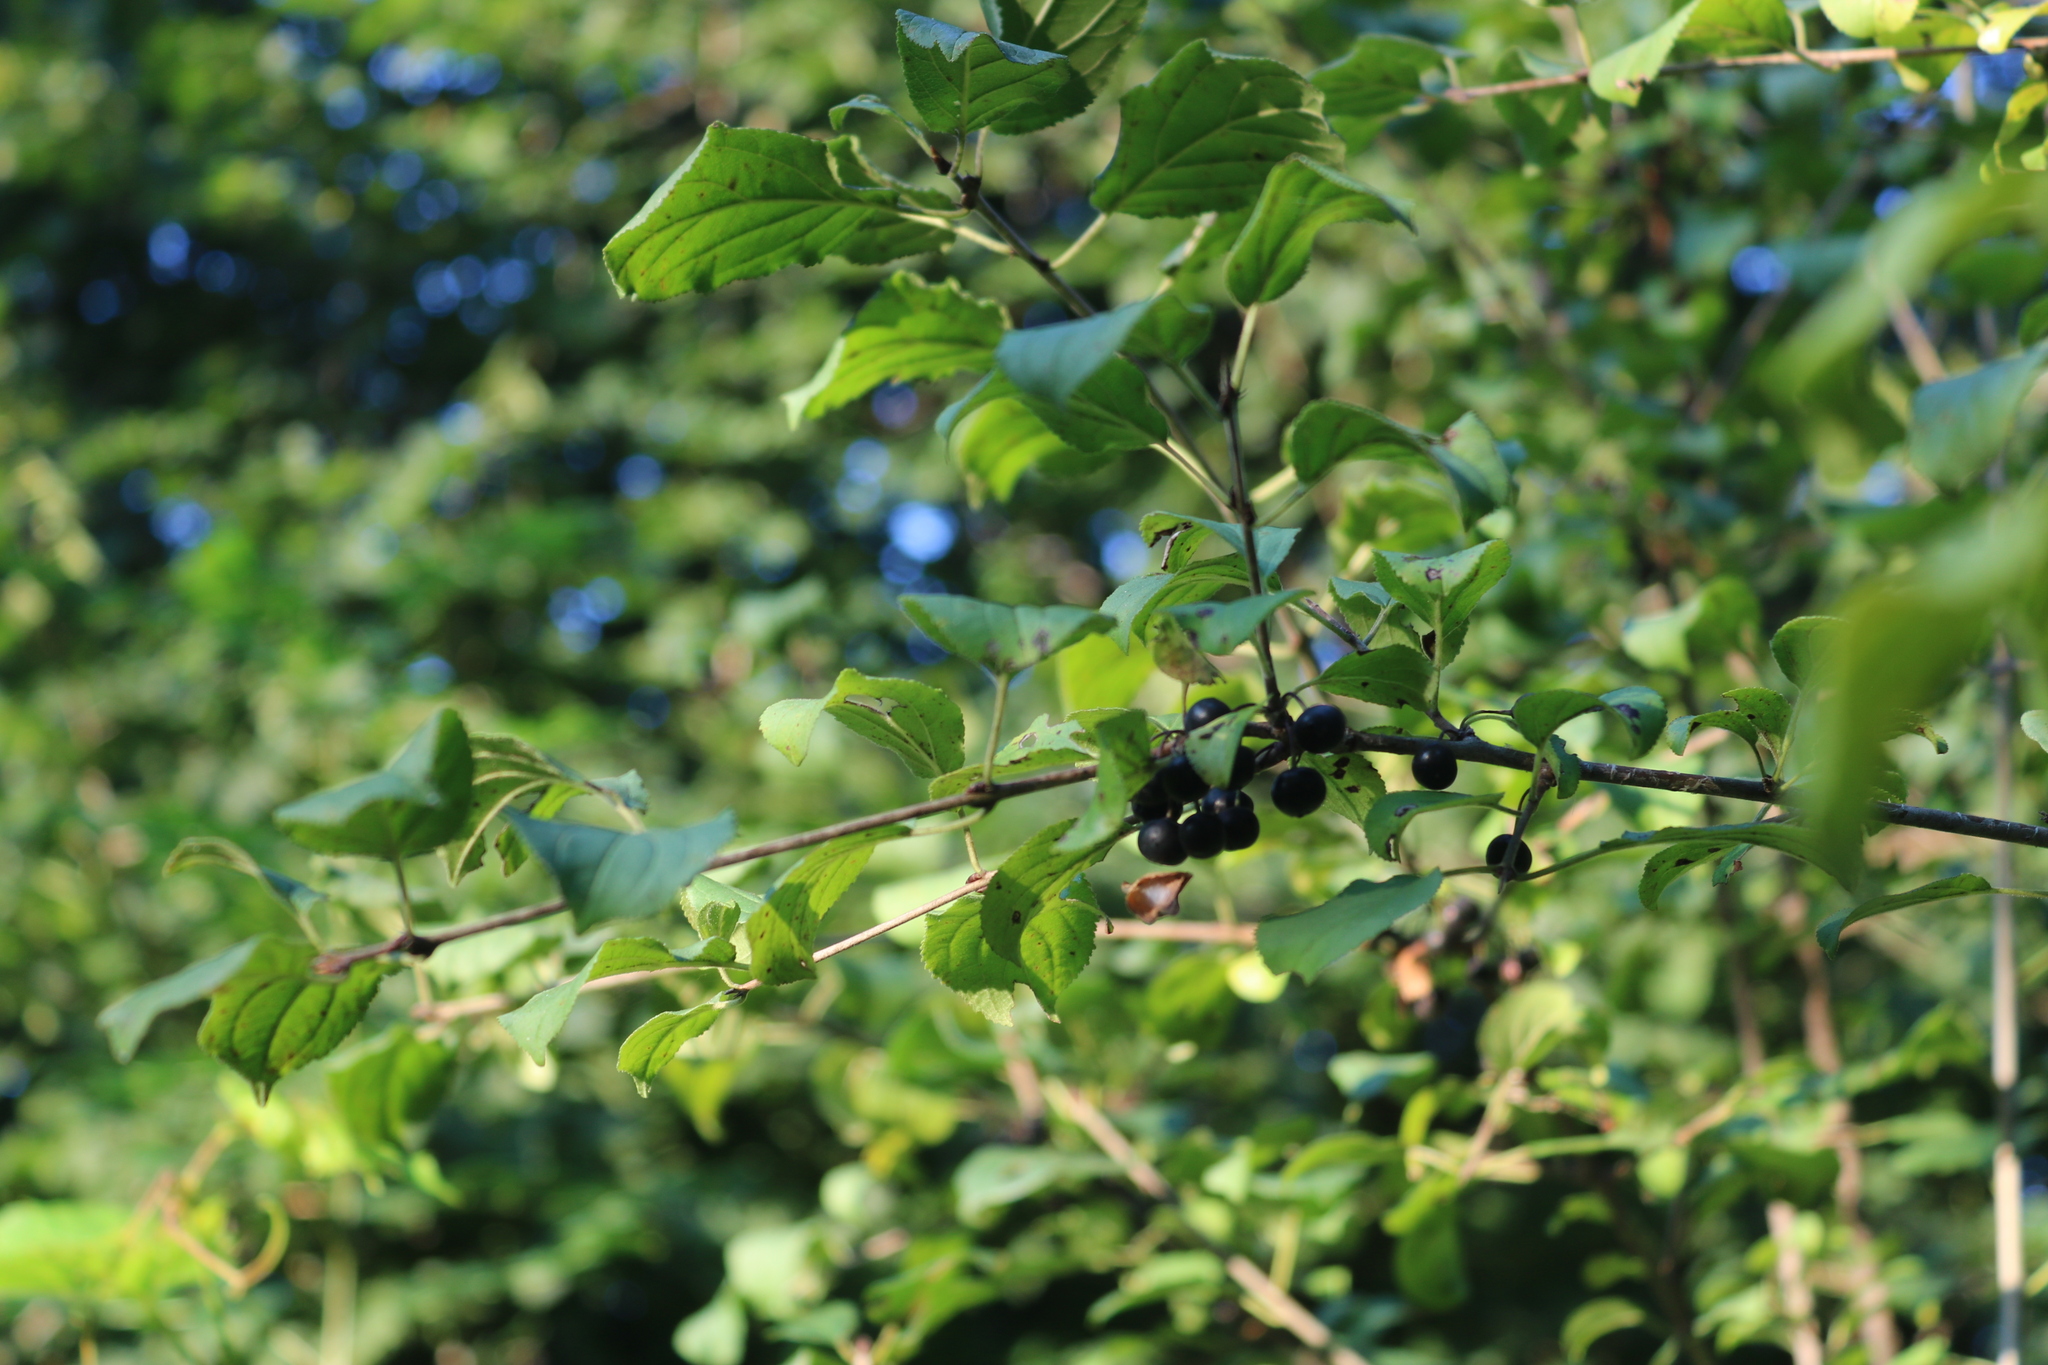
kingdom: Plantae
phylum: Tracheophyta
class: Magnoliopsida
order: Rosales
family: Rhamnaceae
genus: Rhamnus
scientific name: Rhamnus cathartica
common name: Common buckthorn
